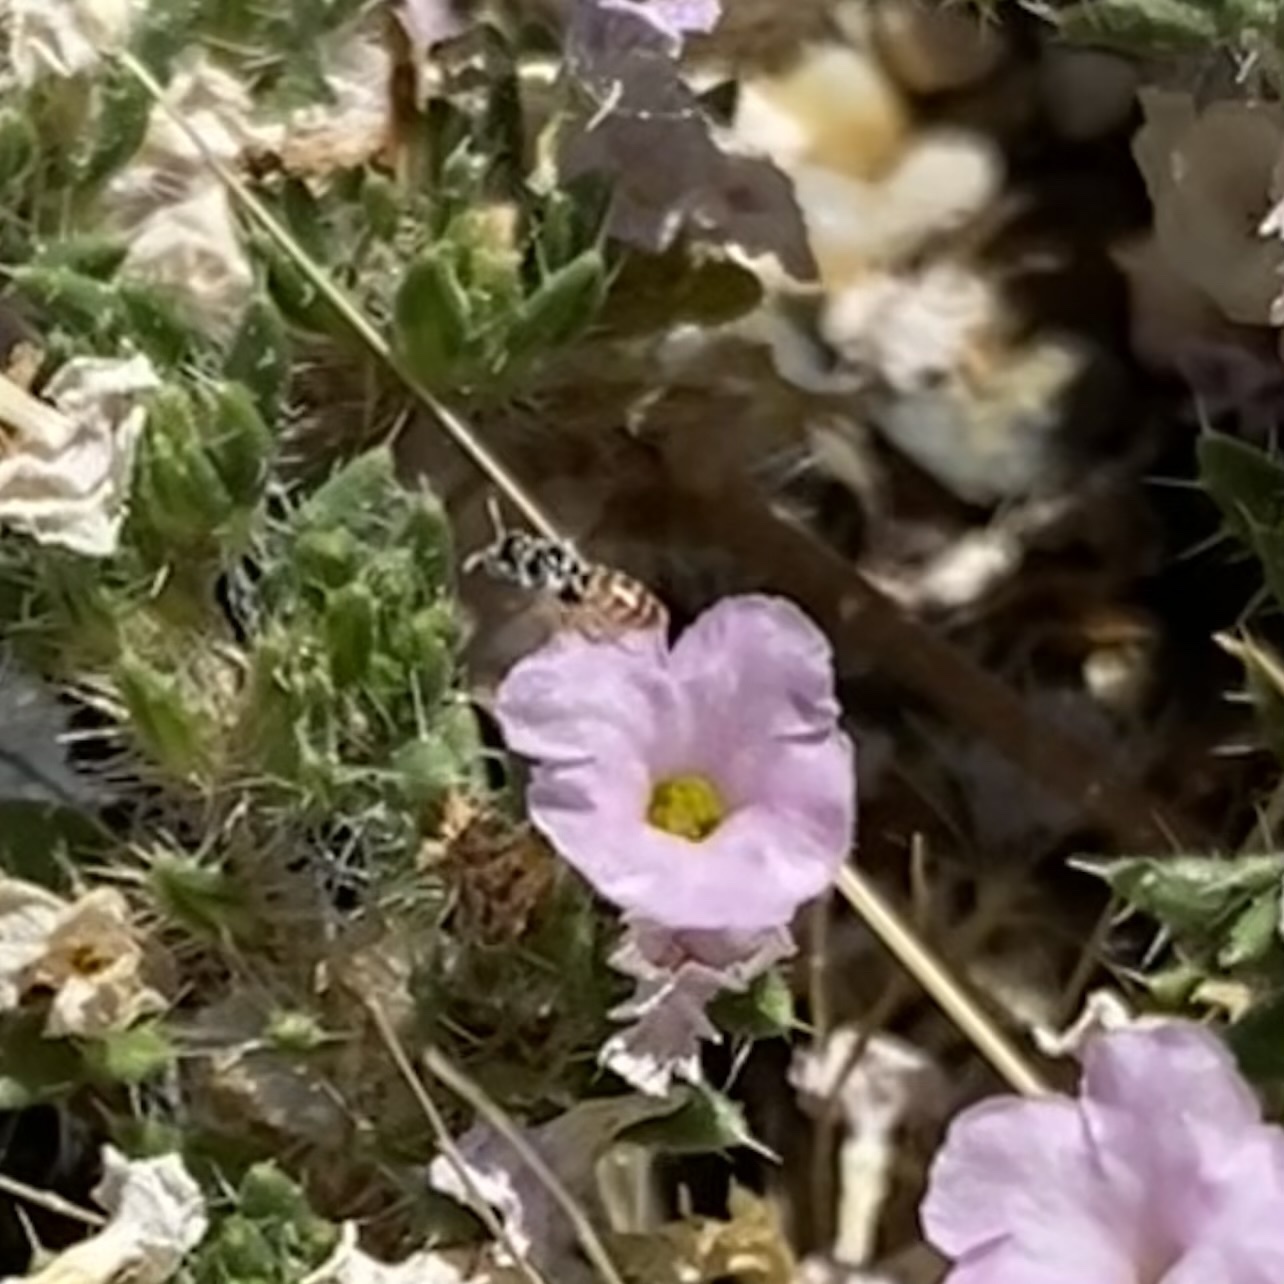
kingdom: Animalia
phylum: Arthropoda
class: Insecta
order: Hymenoptera
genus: Heteroperdita
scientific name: Heteroperdita
